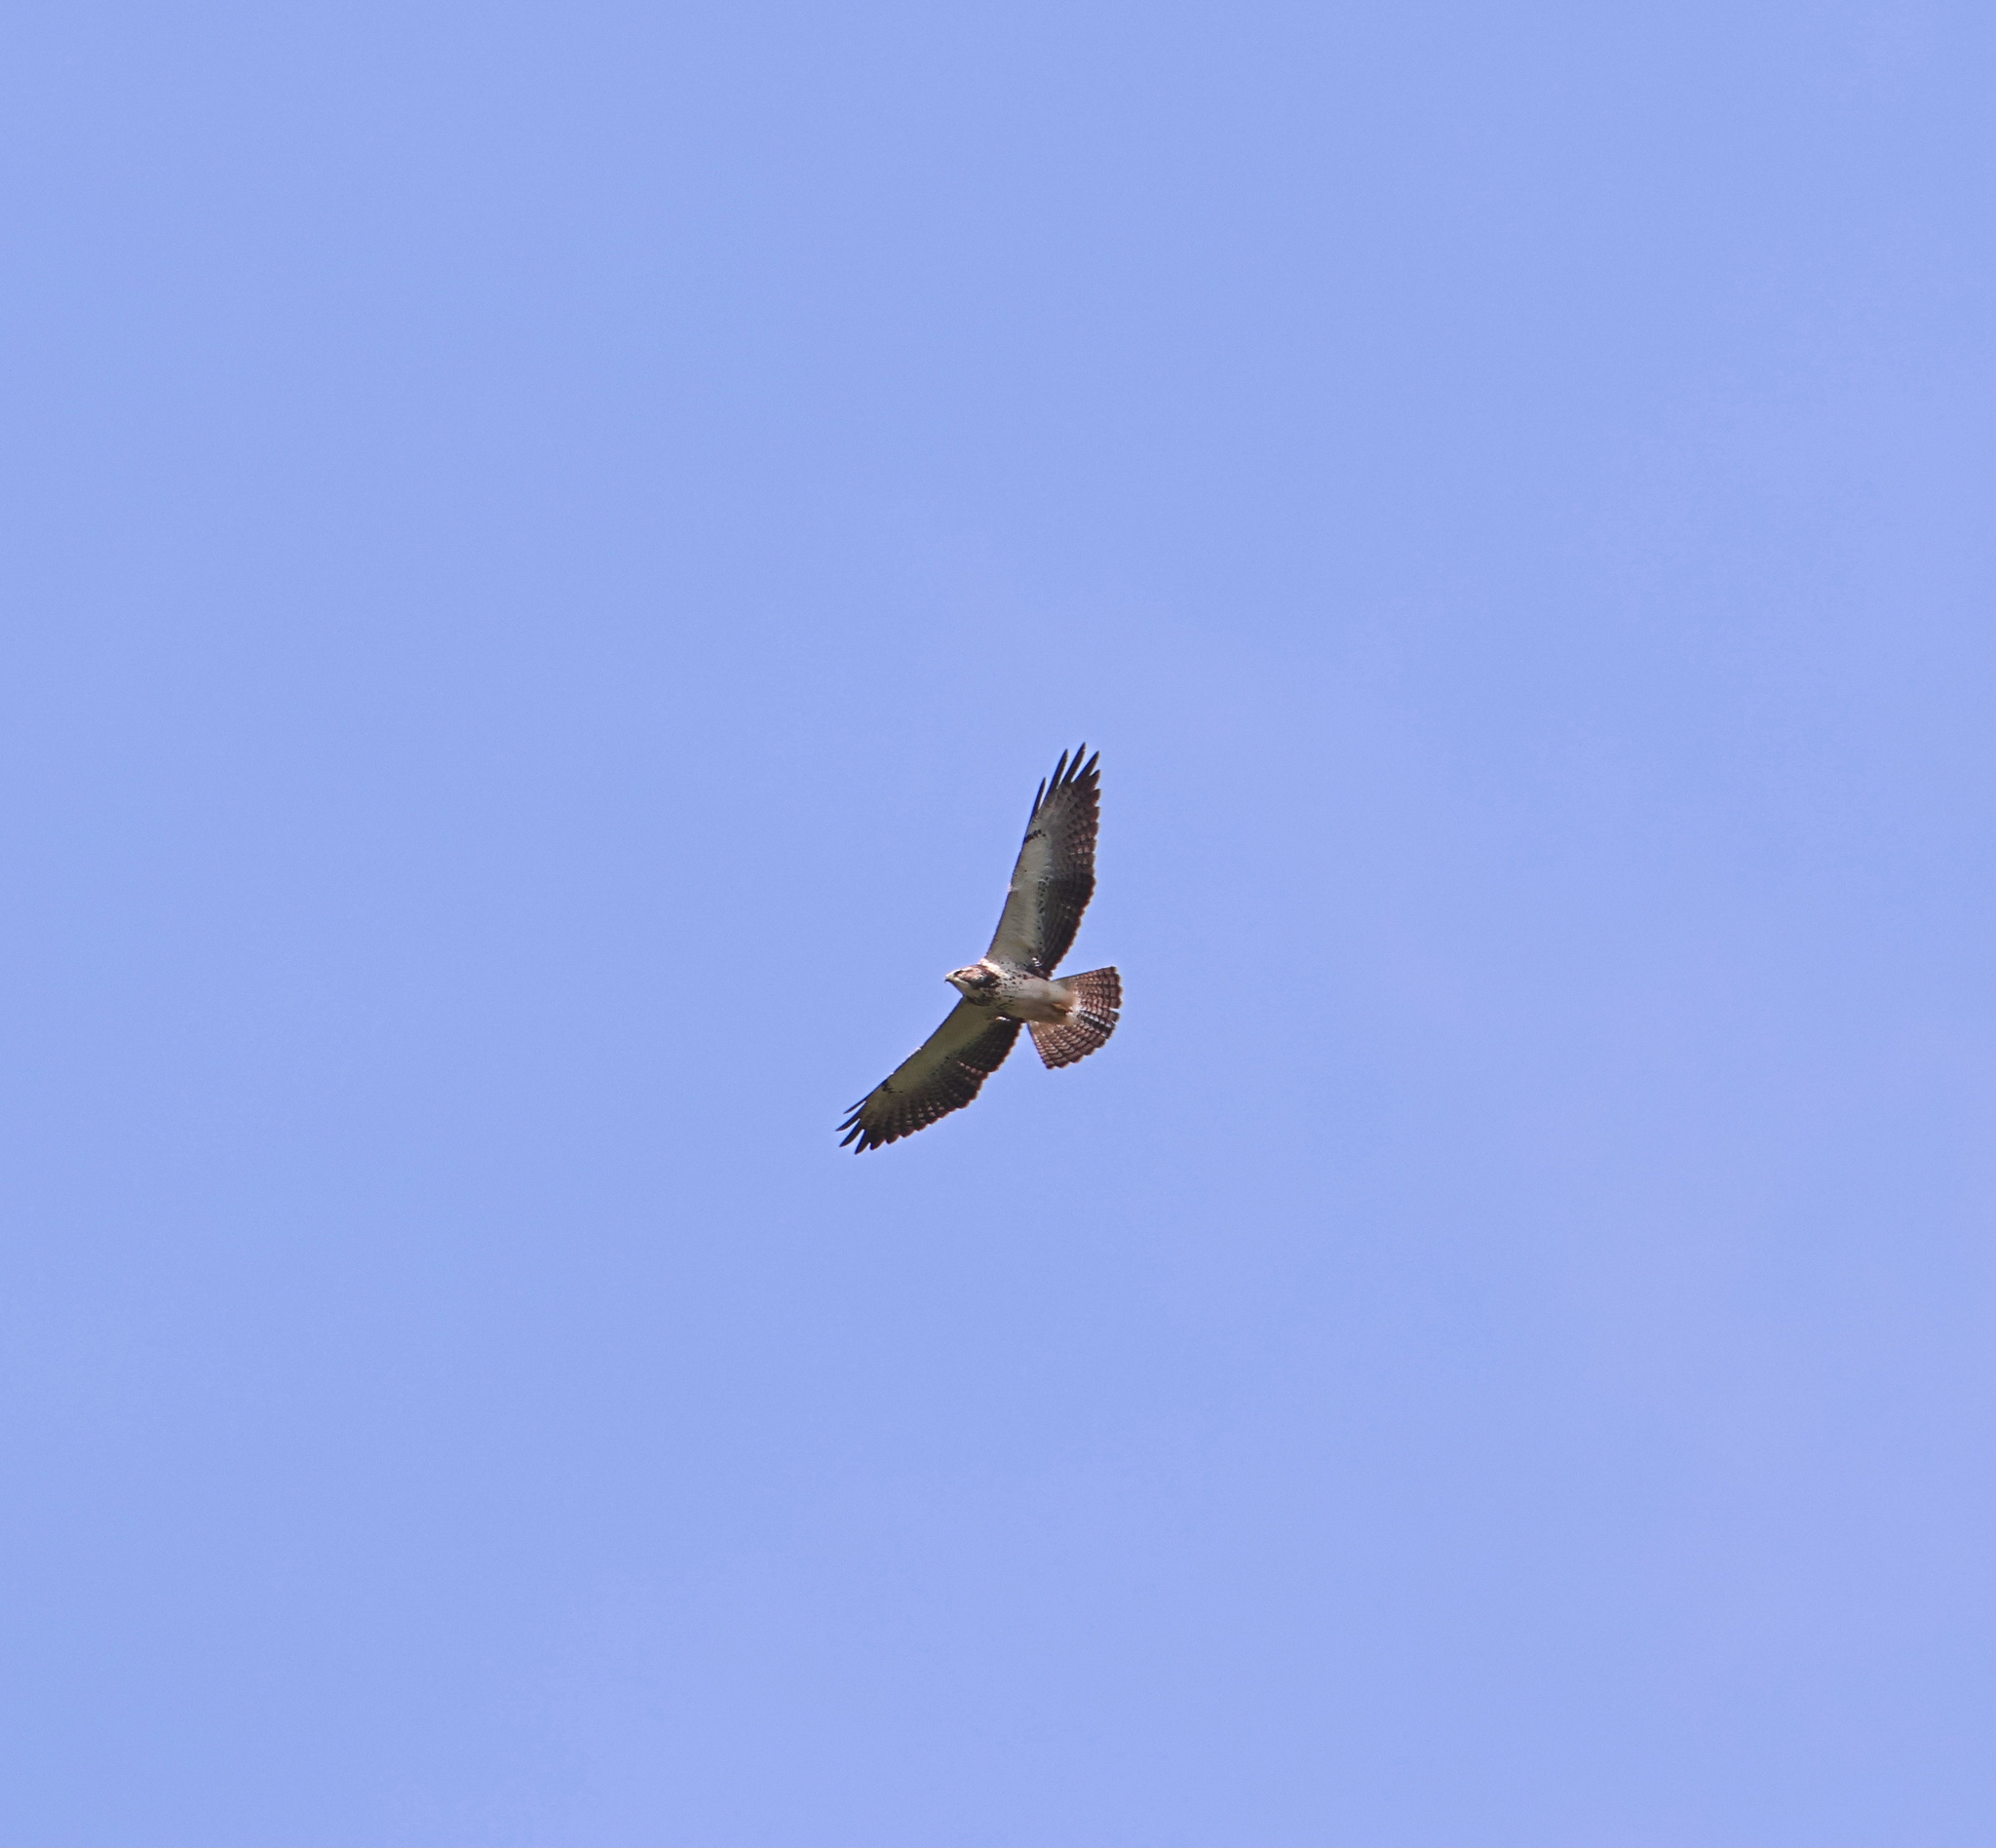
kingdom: Animalia
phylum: Chordata
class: Aves
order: Accipitriformes
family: Accipitridae
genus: Buteo
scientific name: Buteo swainsoni
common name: Swainson's hawk
